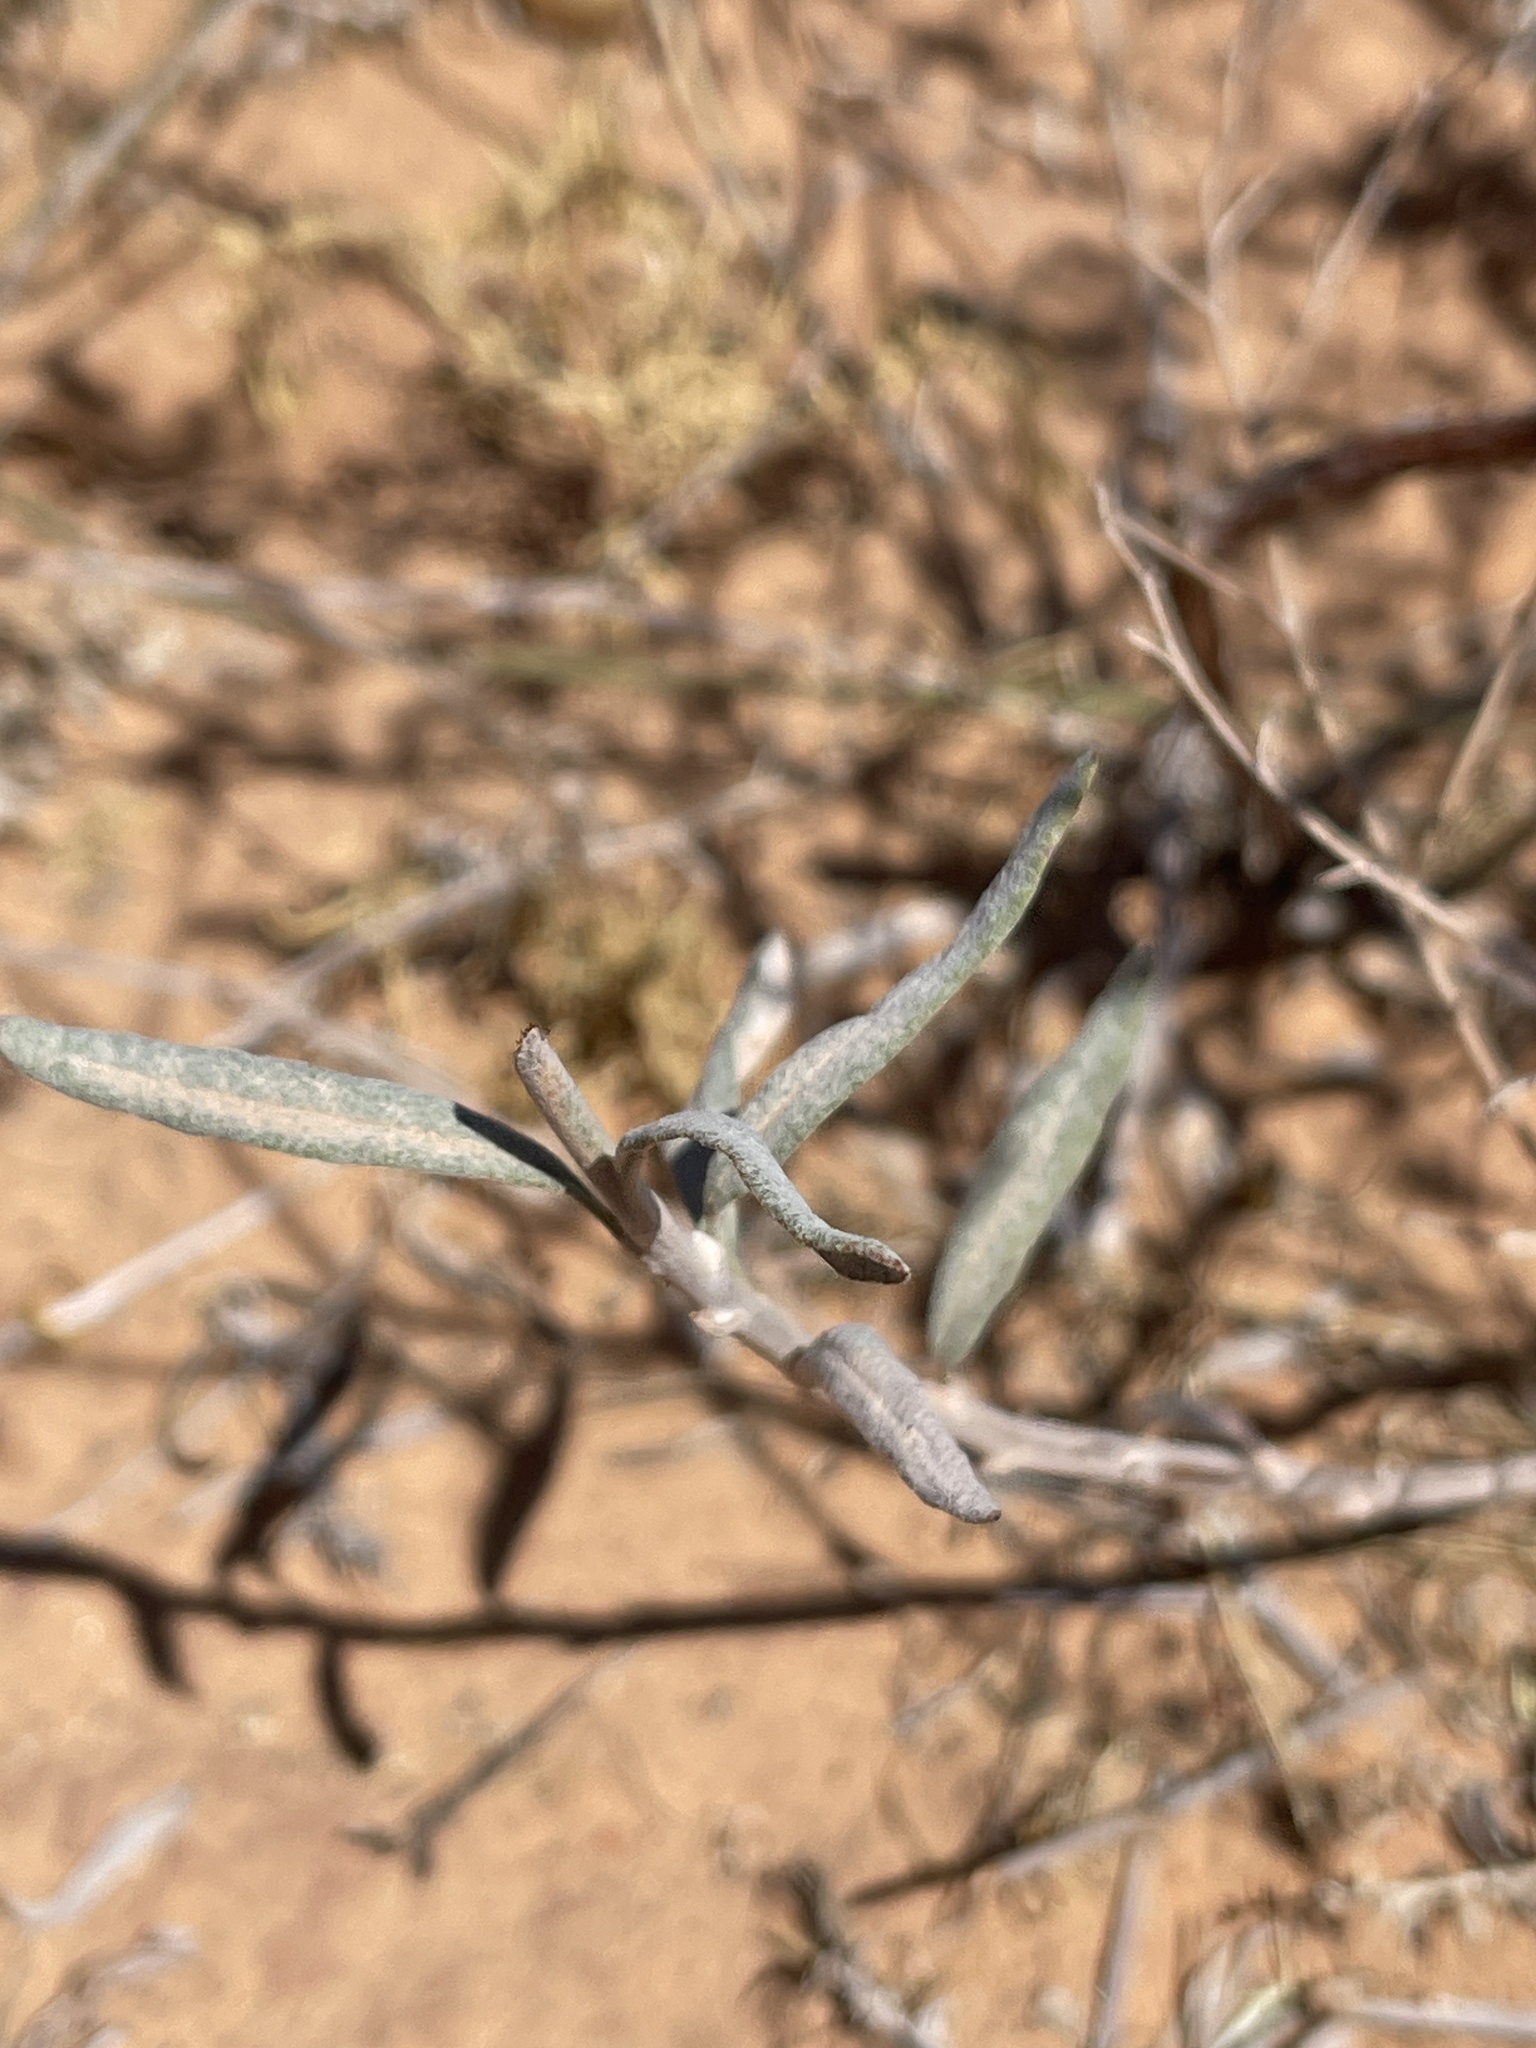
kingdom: Plantae
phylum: Tracheophyta
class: Magnoliopsida
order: Caryophyllales
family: Polygonaceae
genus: Eriogonum
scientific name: Eriogonum leptocladon
